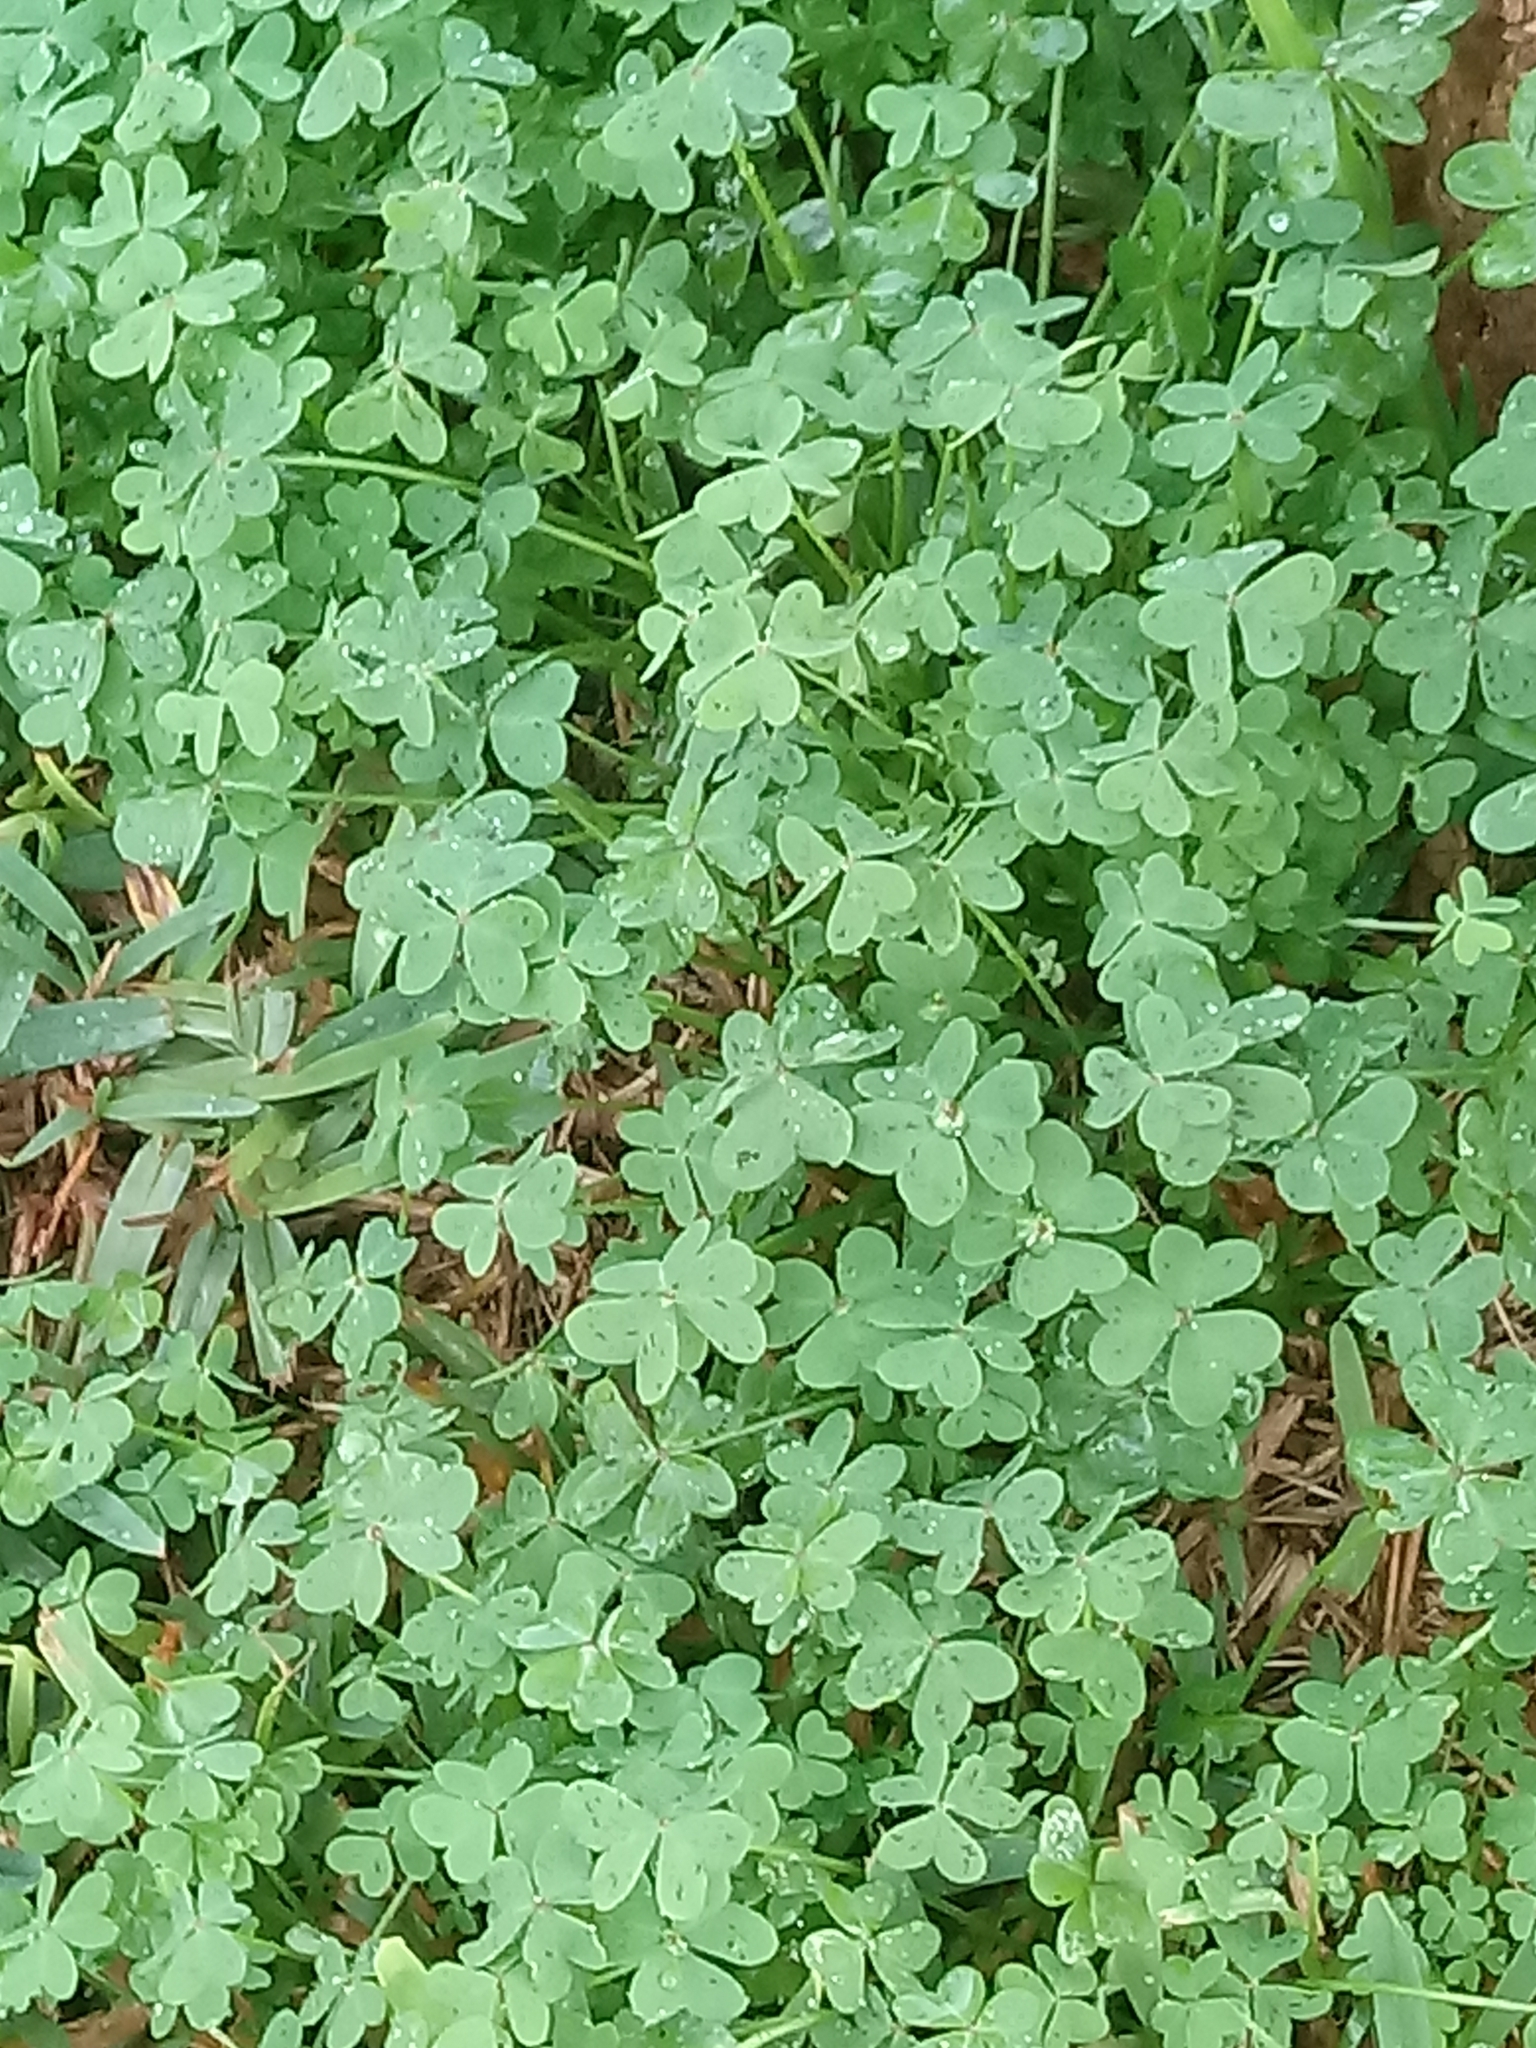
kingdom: Plantae
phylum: Tracheophyta
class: Magnoliopsida
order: Oxalidales
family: Oxalidaceae
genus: Oxalis
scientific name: Oxalis pes-caprae
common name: Bermuda-buttercup
